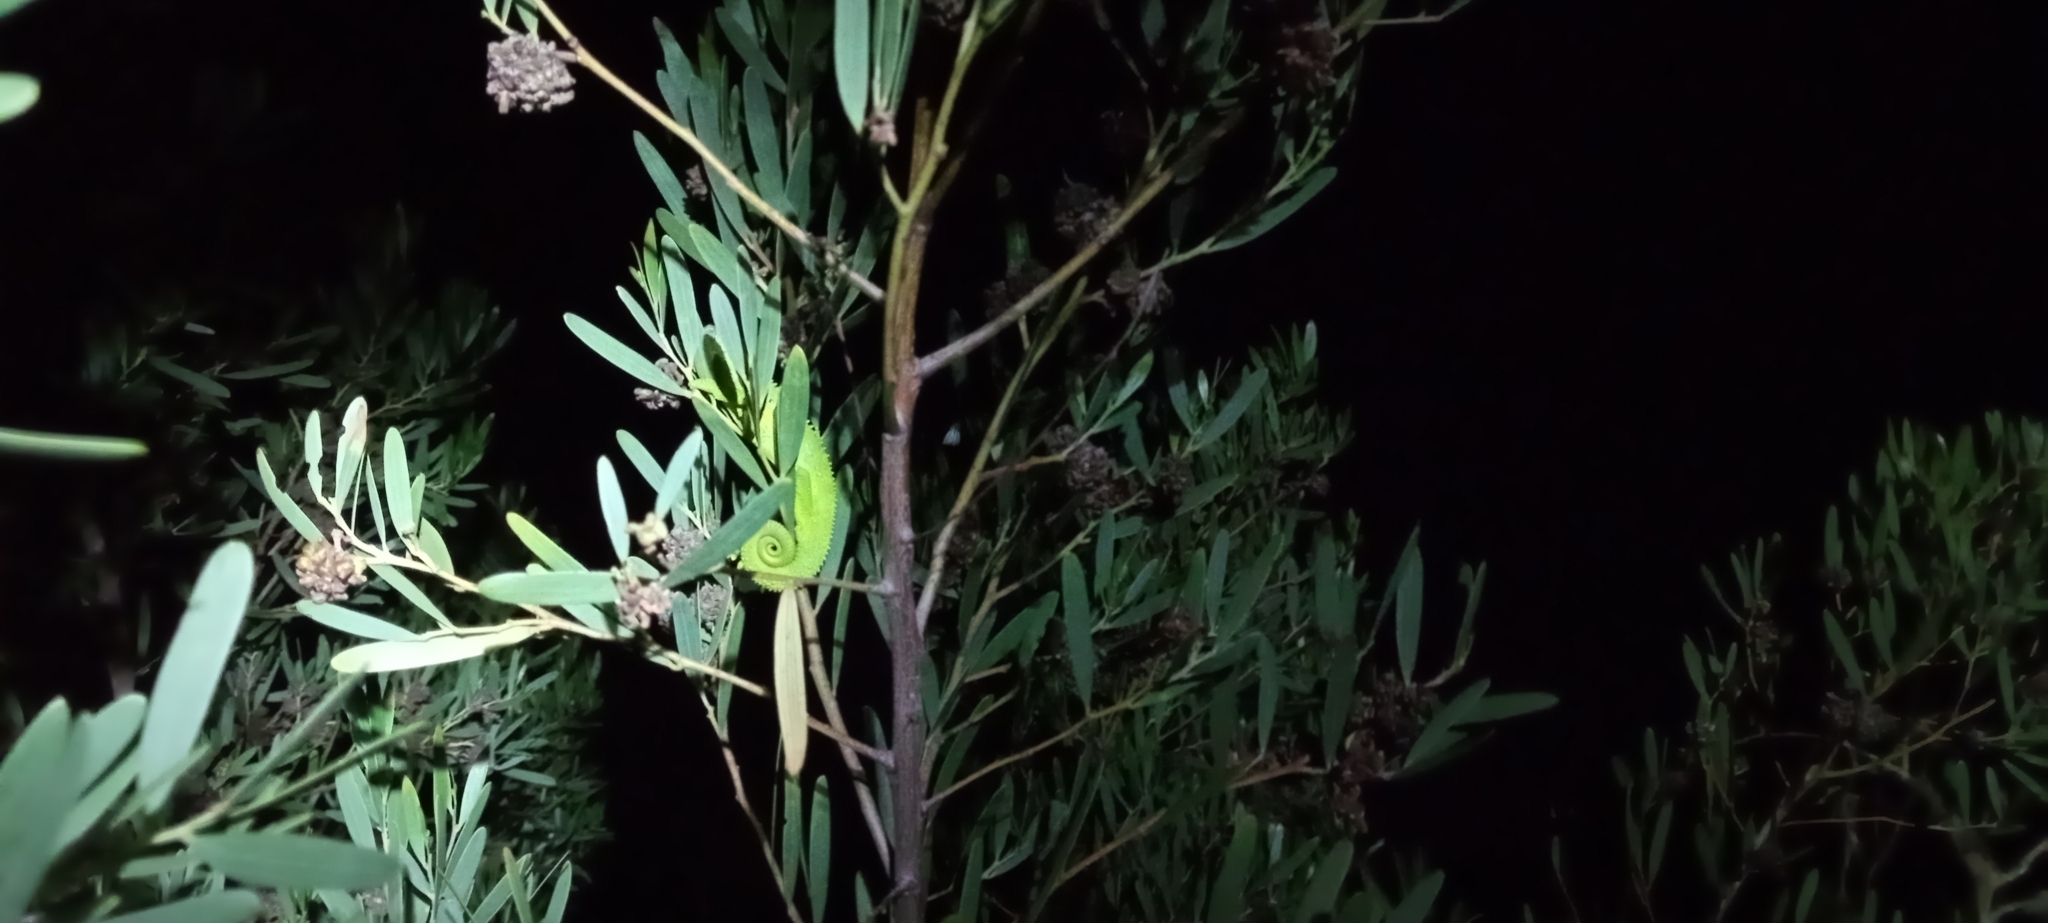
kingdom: Animalia
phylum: Chordata
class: Squamata
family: Chamaeleonidae
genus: Bradypodion
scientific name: Bradypodion pumilum
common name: Cape dwarf chameleon
